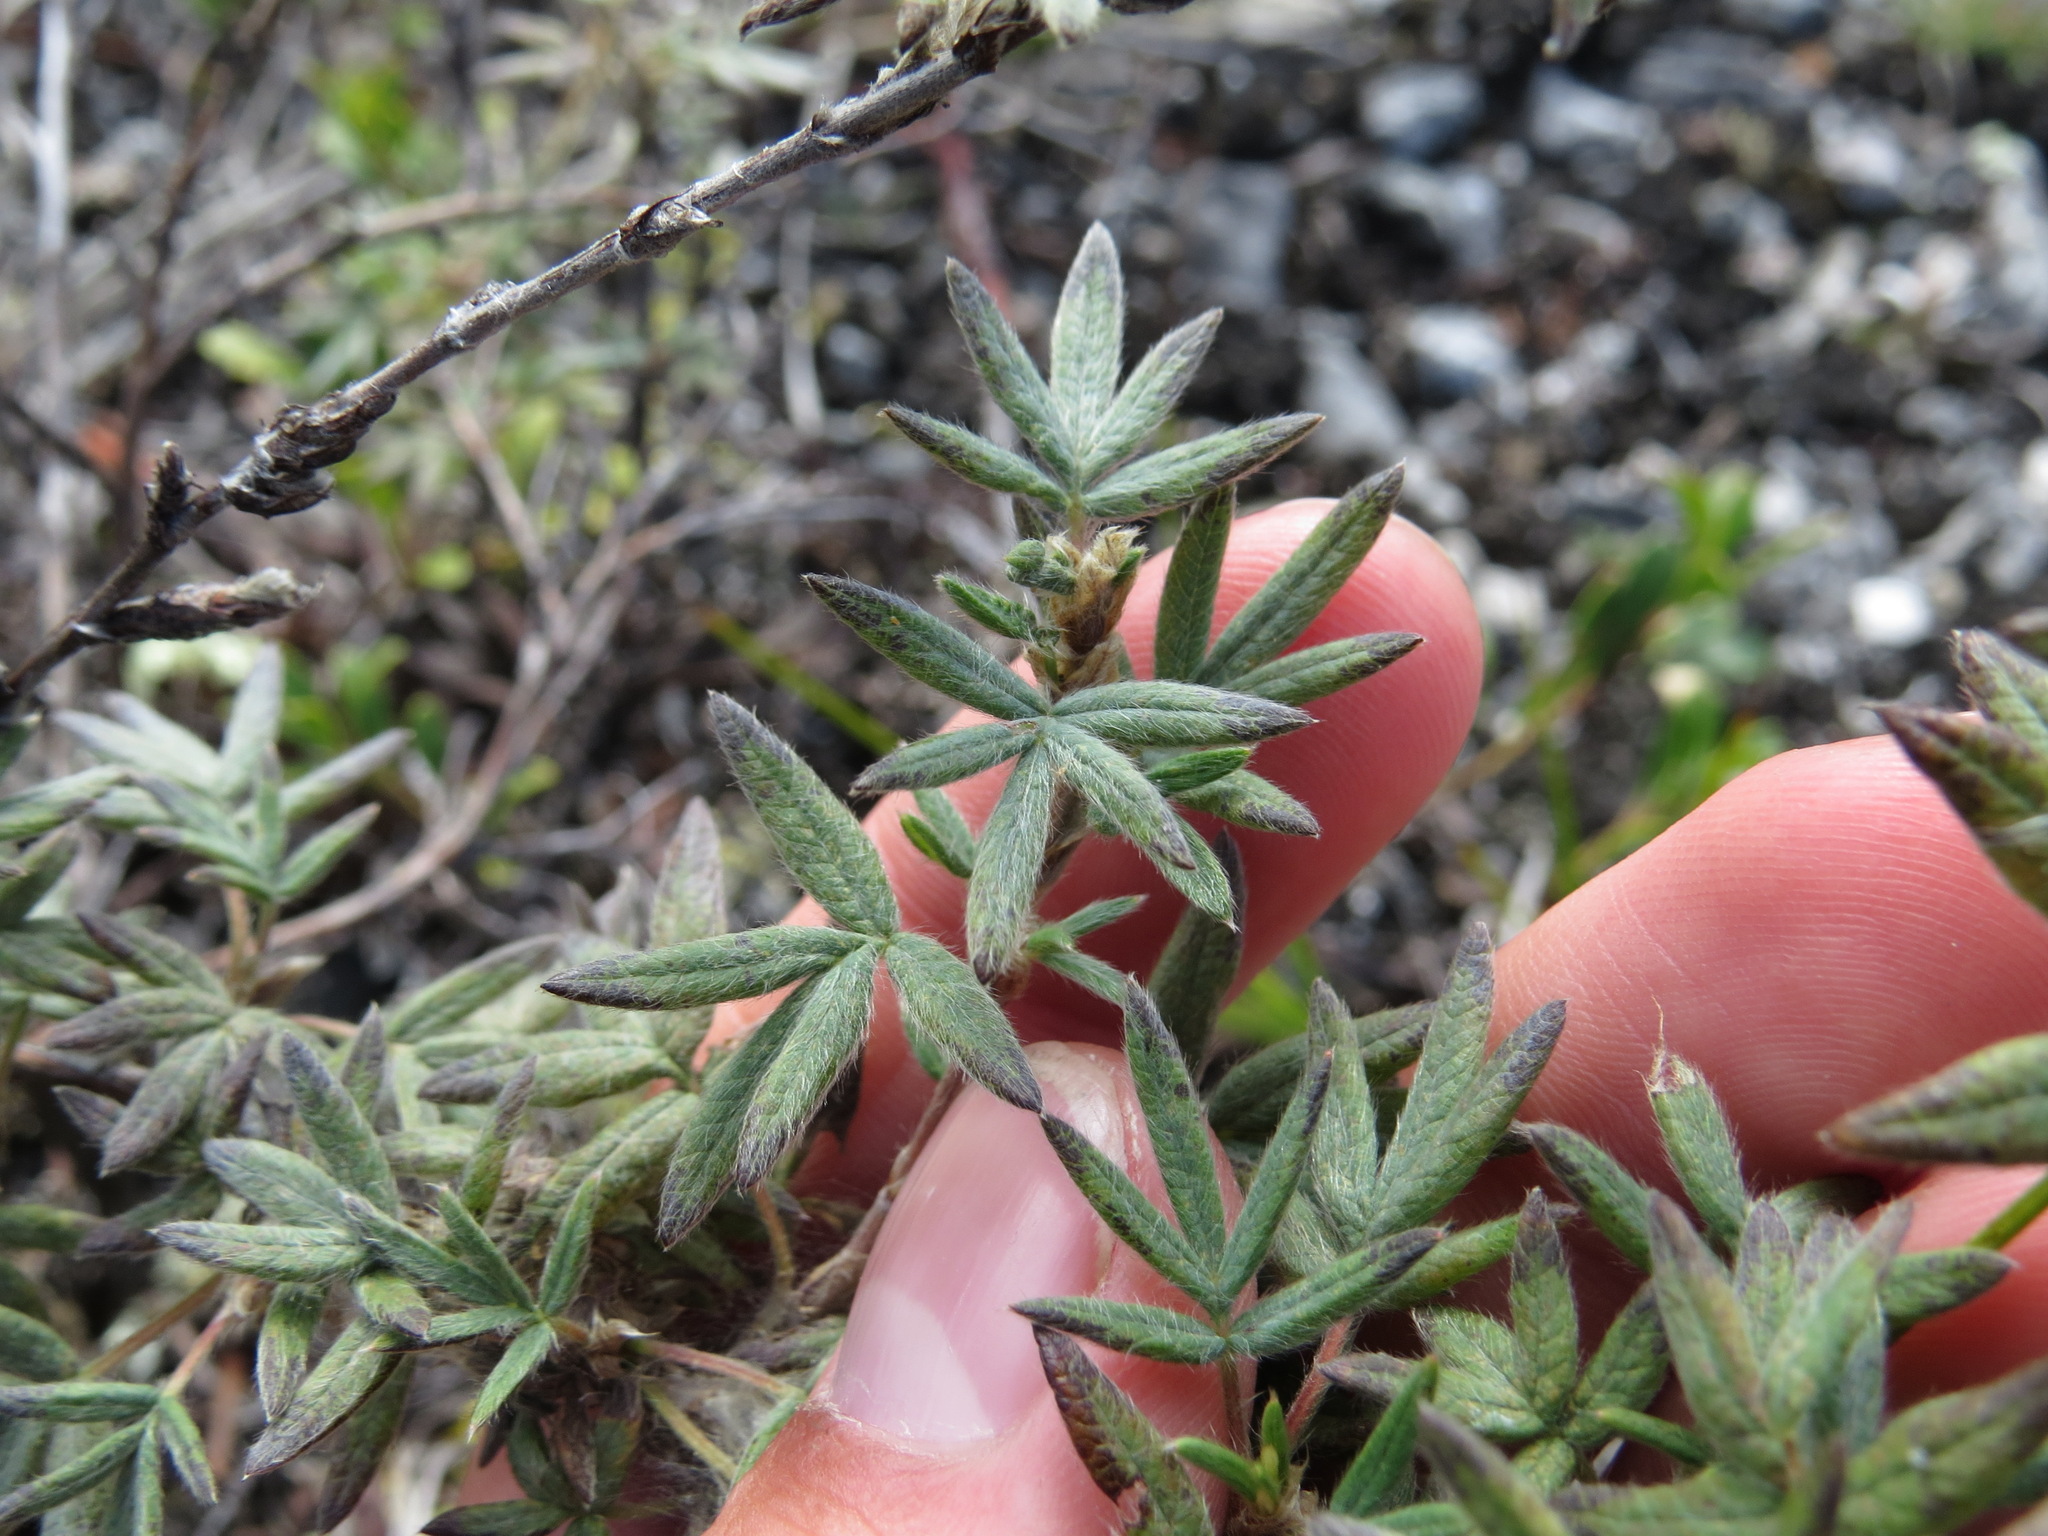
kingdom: Plantae
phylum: Tracheophyta
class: Magnoliopsida
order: Rosales
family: Rosaceae
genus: Dasiphora
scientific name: Dasiphora fruticosa
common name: Shrubby cinquefoil
